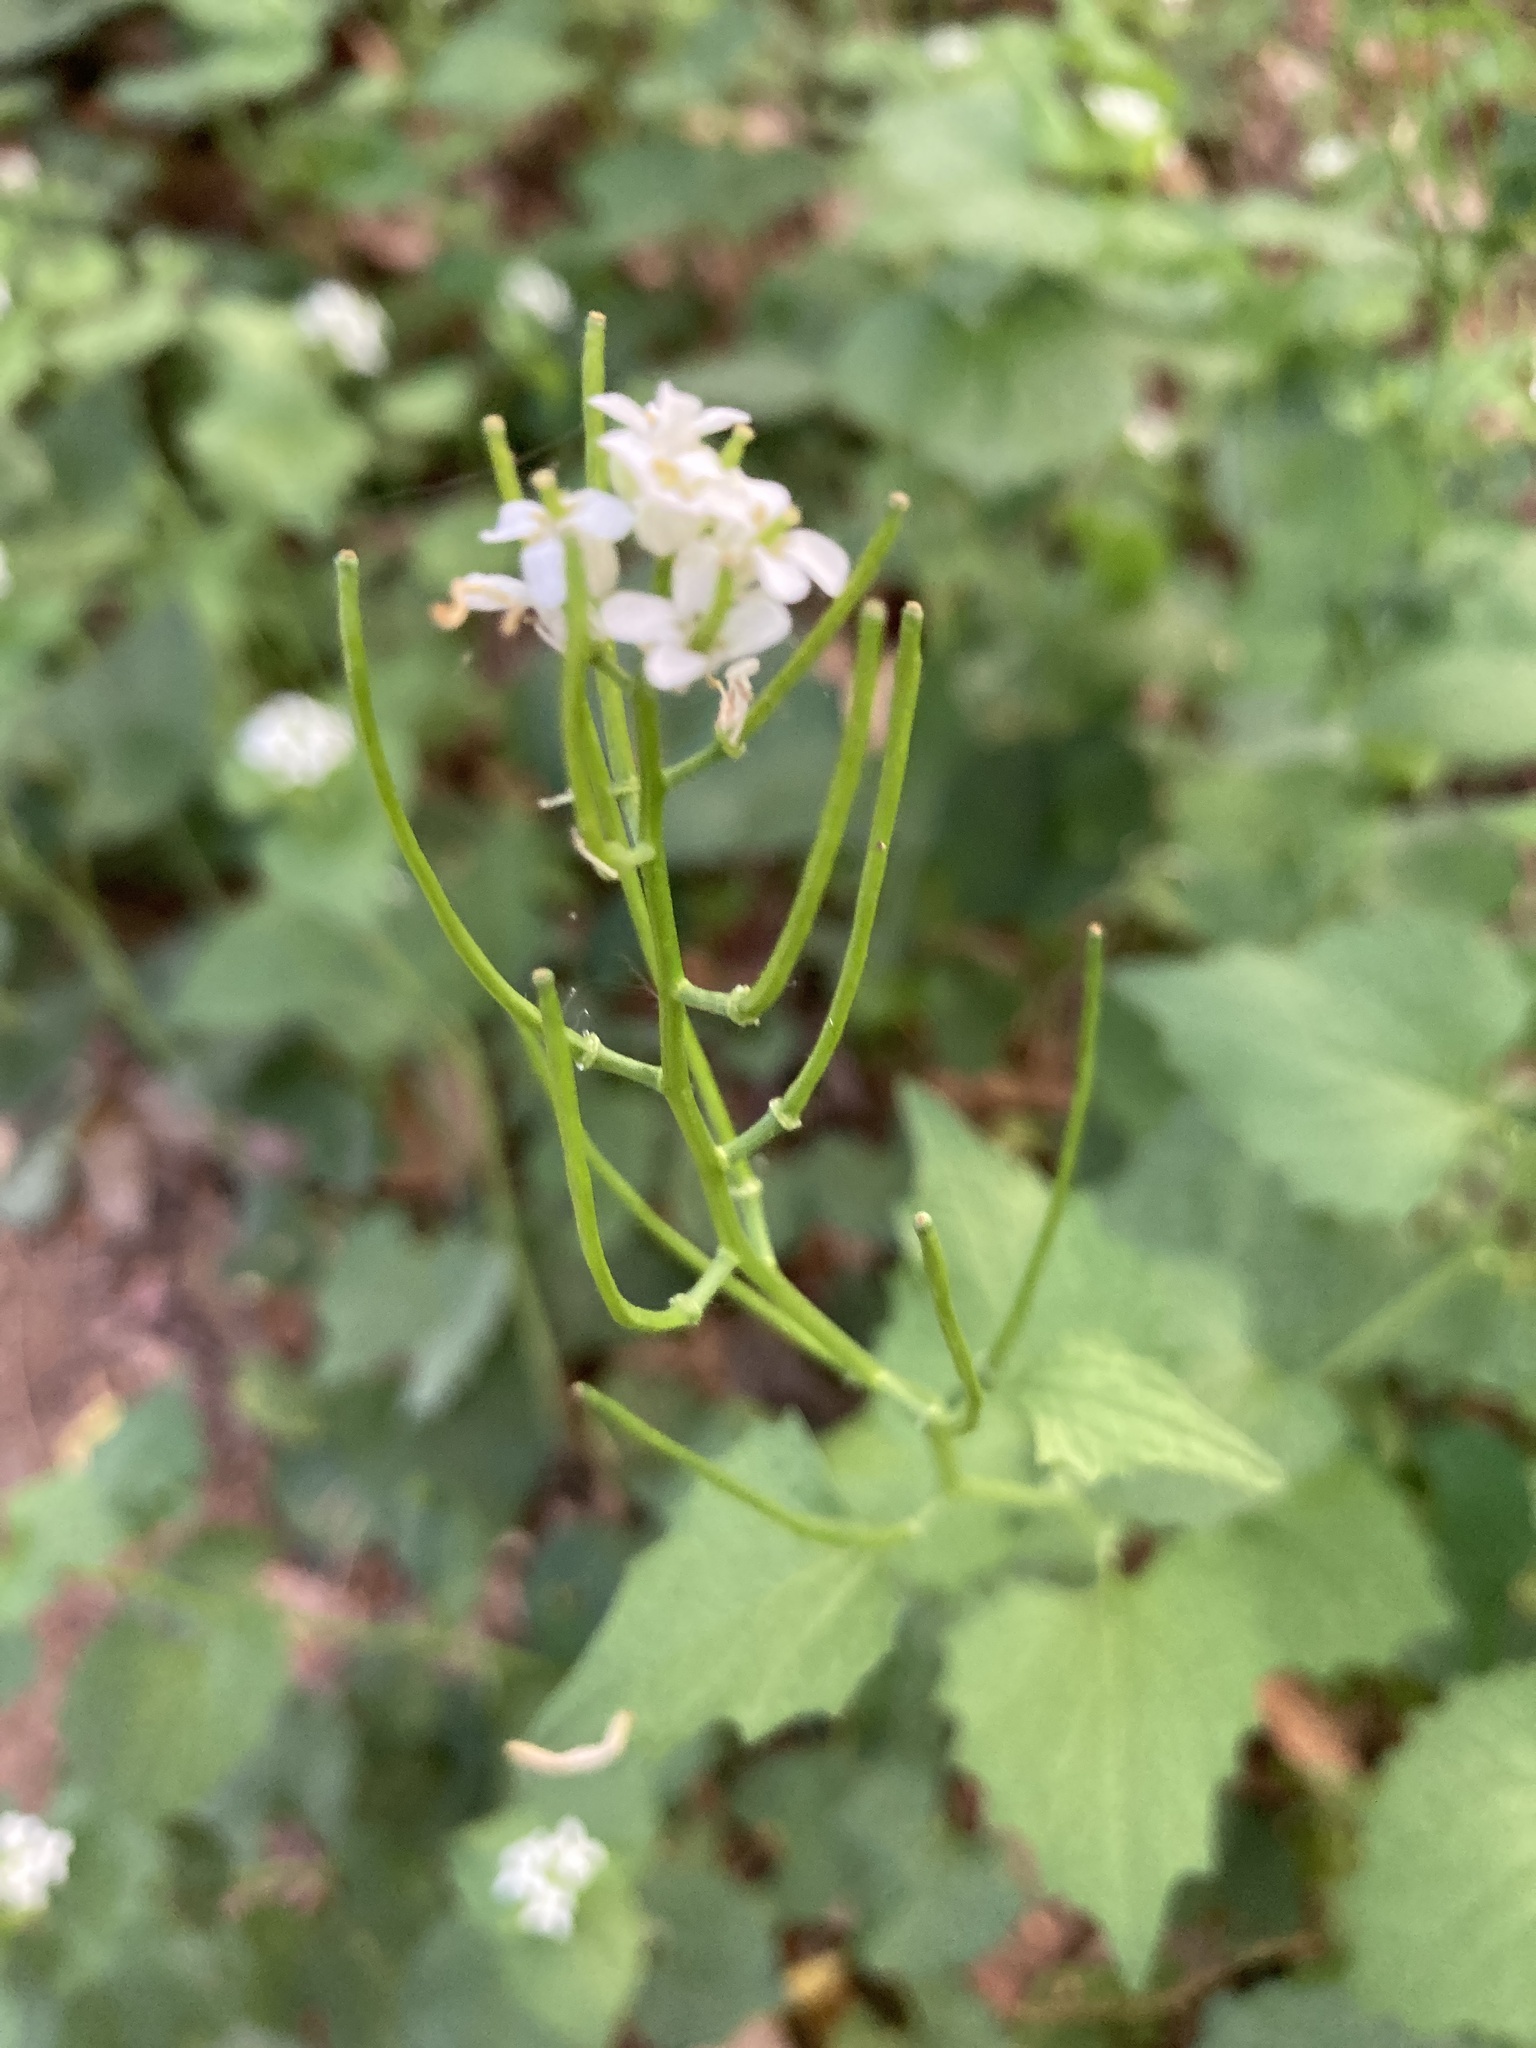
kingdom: Plantae
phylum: Tracheophyta
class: Magnoliopsida
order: Brassicales
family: Brassicaceae
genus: Alliaria
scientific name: Alliaria petiolata
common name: Garlic mustard
